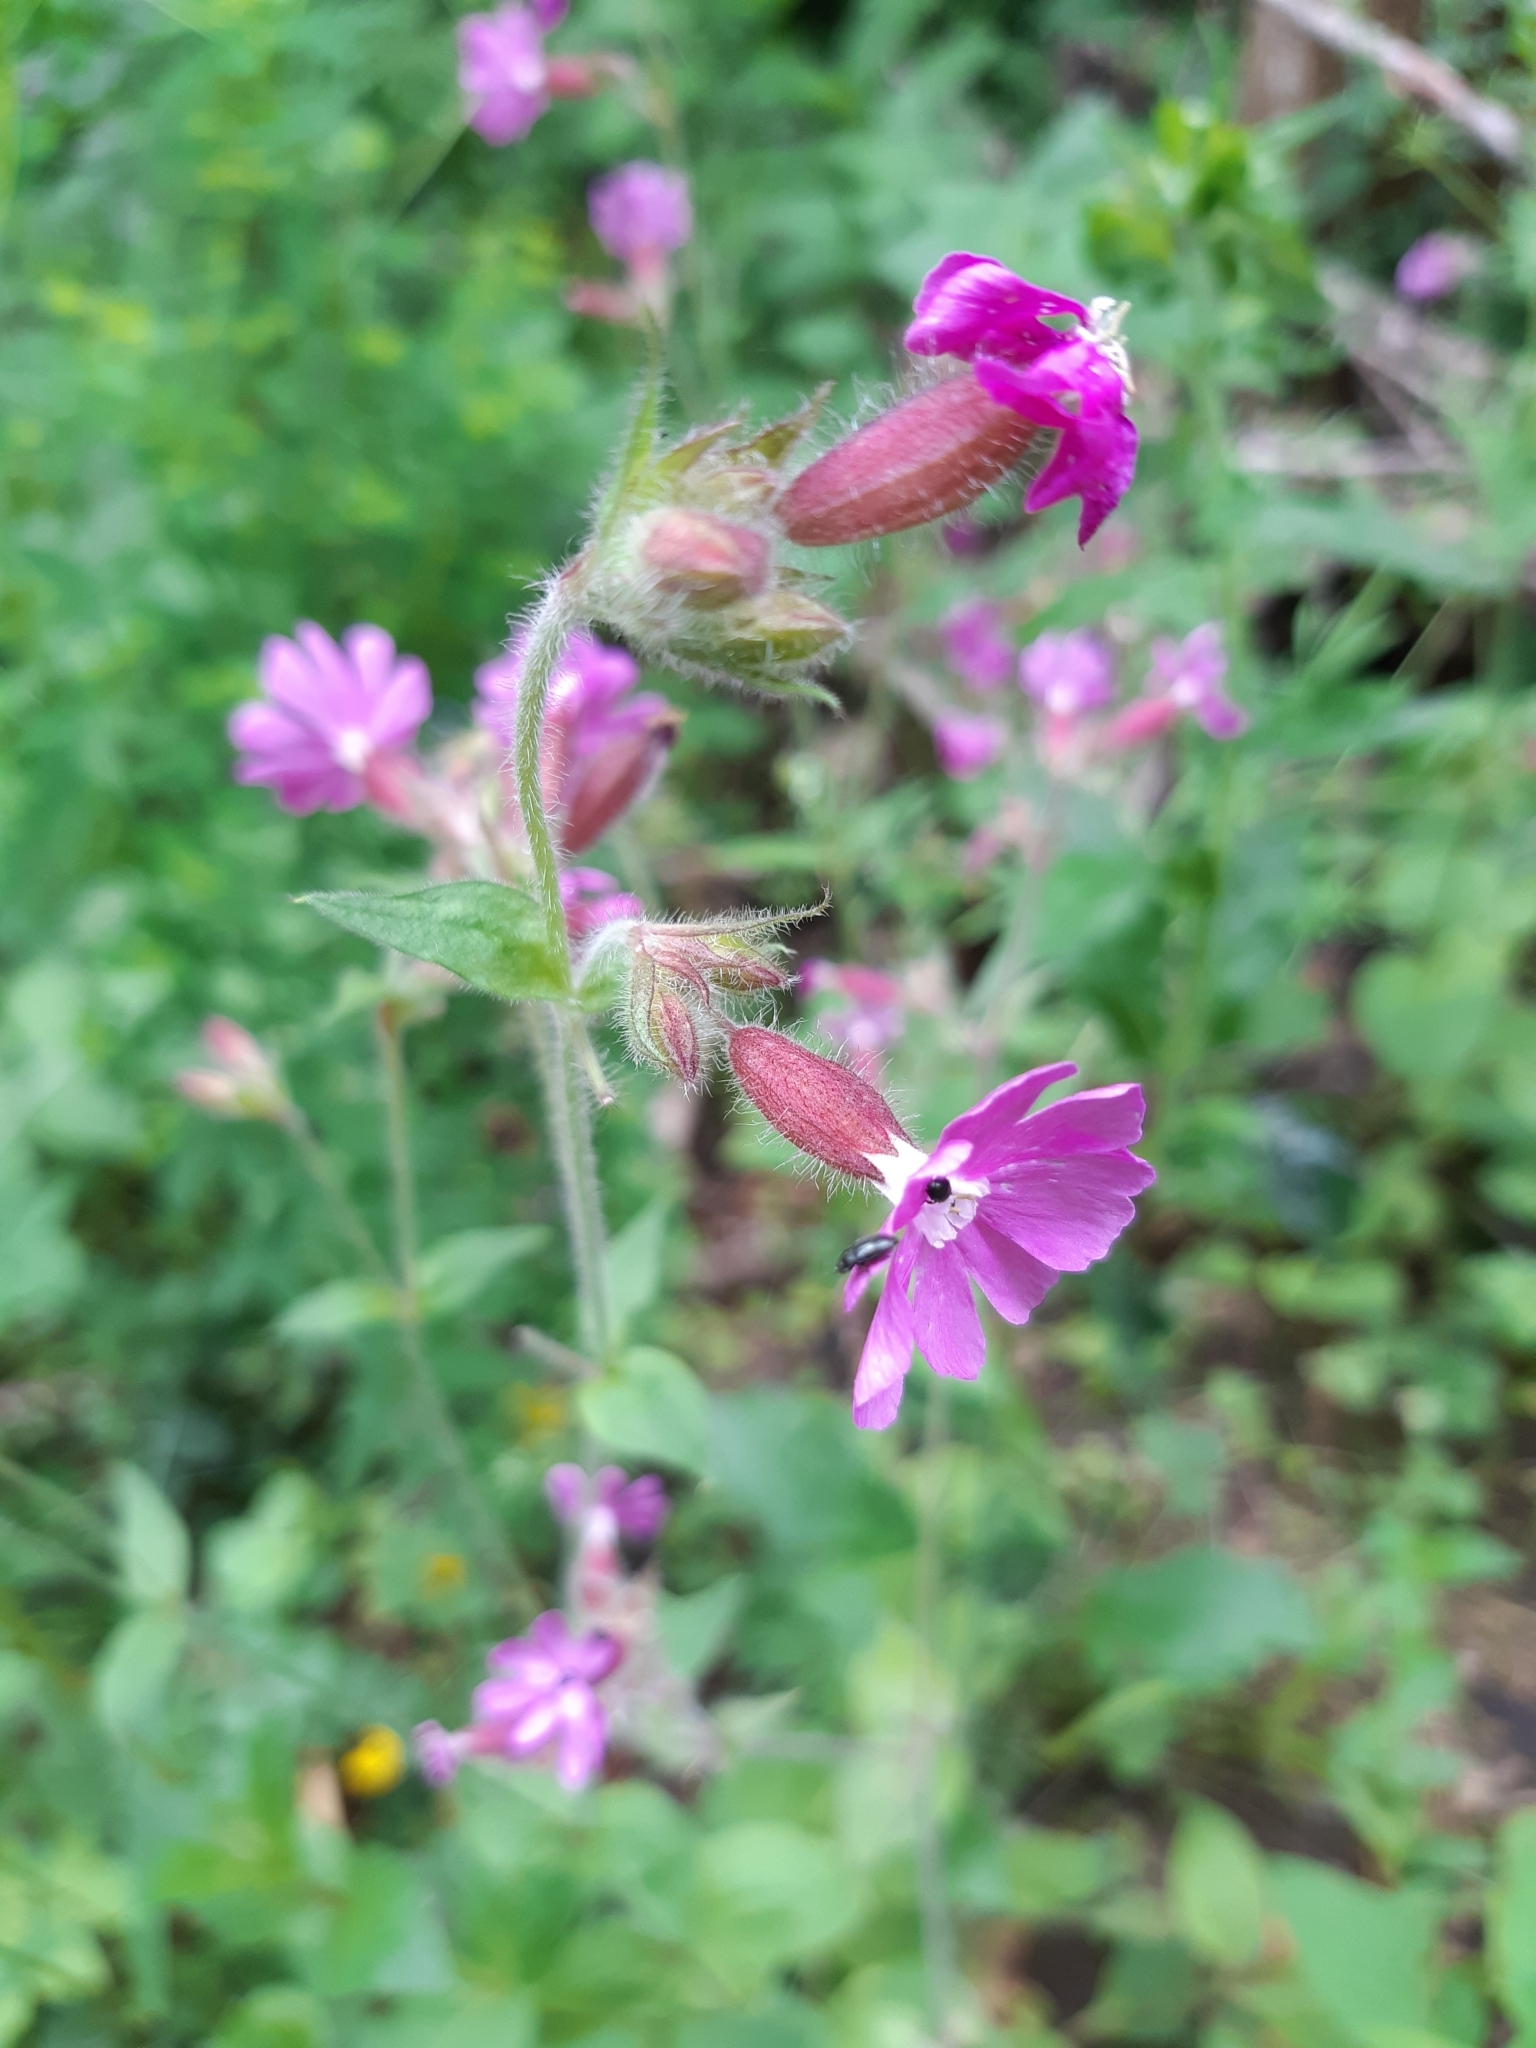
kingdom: Plantae
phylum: Tracheophyta
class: Magnoliopsida
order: Caryophyllales
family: Caryophyllaceae
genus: Silene
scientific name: Silene dioica
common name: Red campion
